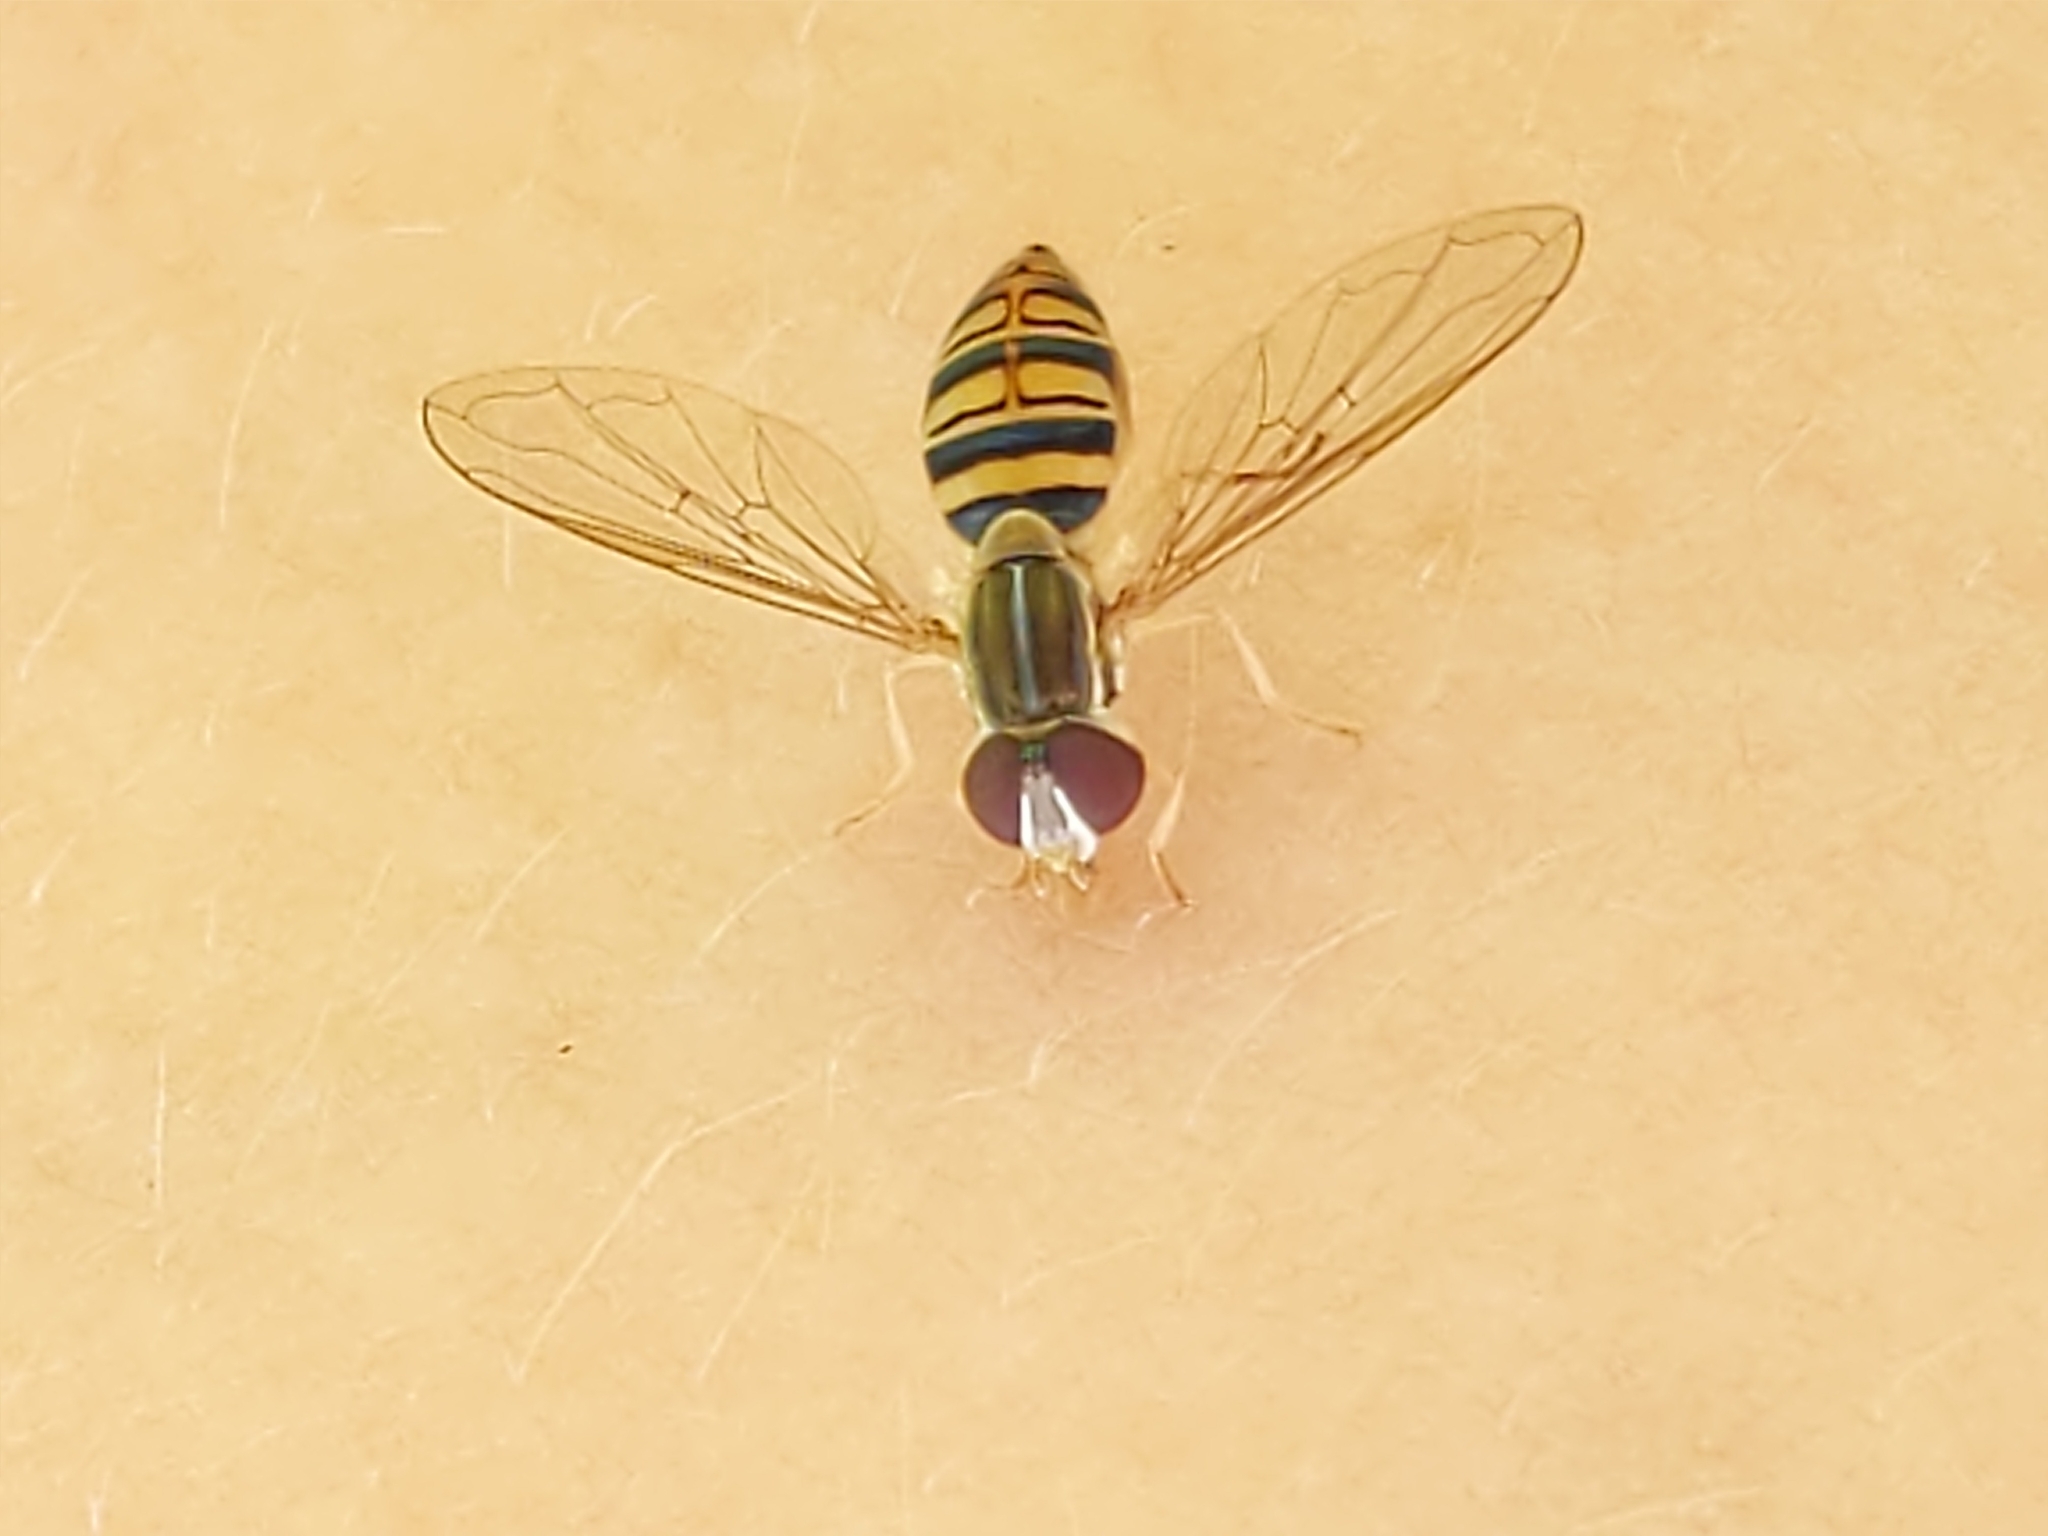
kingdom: Animalia
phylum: Arthropoda
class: Insecta
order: Diptera
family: Syrphidae
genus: Toxomerus
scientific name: Toxomerus politus
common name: Maize calligrapher
